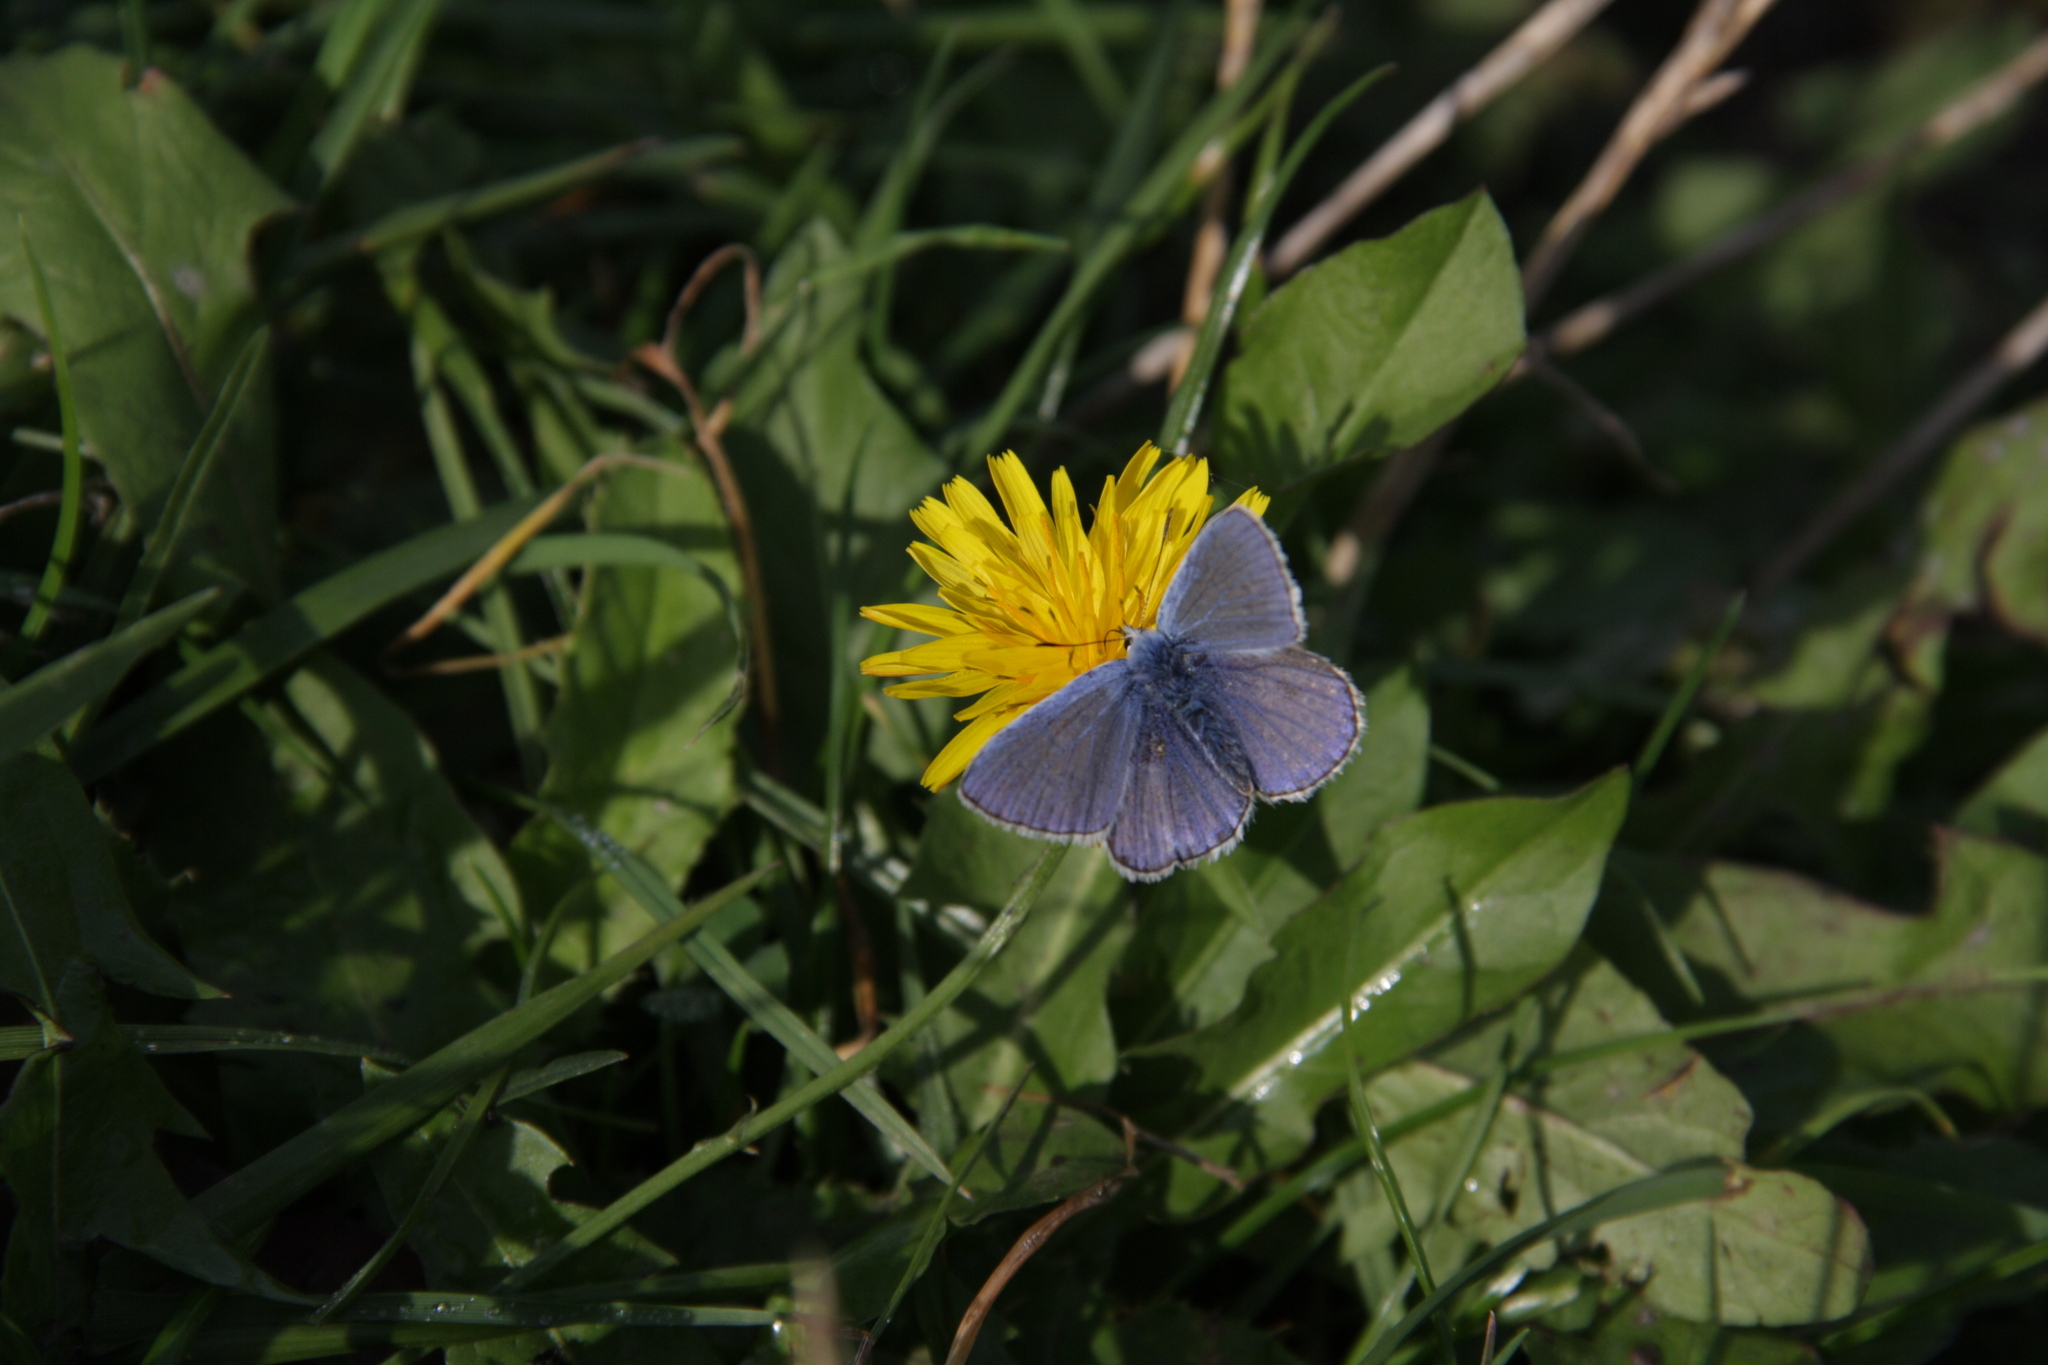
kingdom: Animalia
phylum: Arthropoda
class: Insecta
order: Lepidoptera
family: Lycaenidae
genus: Polyommatus
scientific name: Polyommatus icarus
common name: Common blue
